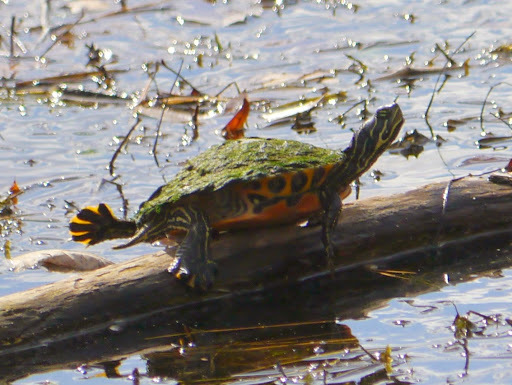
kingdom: Animalia
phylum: Chordata
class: Testudines
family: Emydidae
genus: Pseudemys
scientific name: Pseudemys rubriventris
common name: American red-bellied turtle
